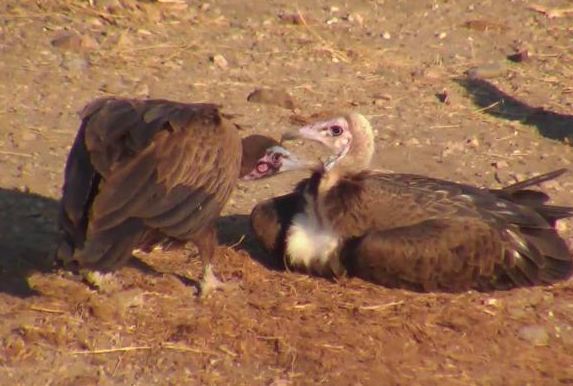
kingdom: Animalia
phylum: Chordata
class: Aves
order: Accipitriformes
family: Accipitridae
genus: Necrosyrtes
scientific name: Necrosyrtes monachus
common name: Hooded vulture
